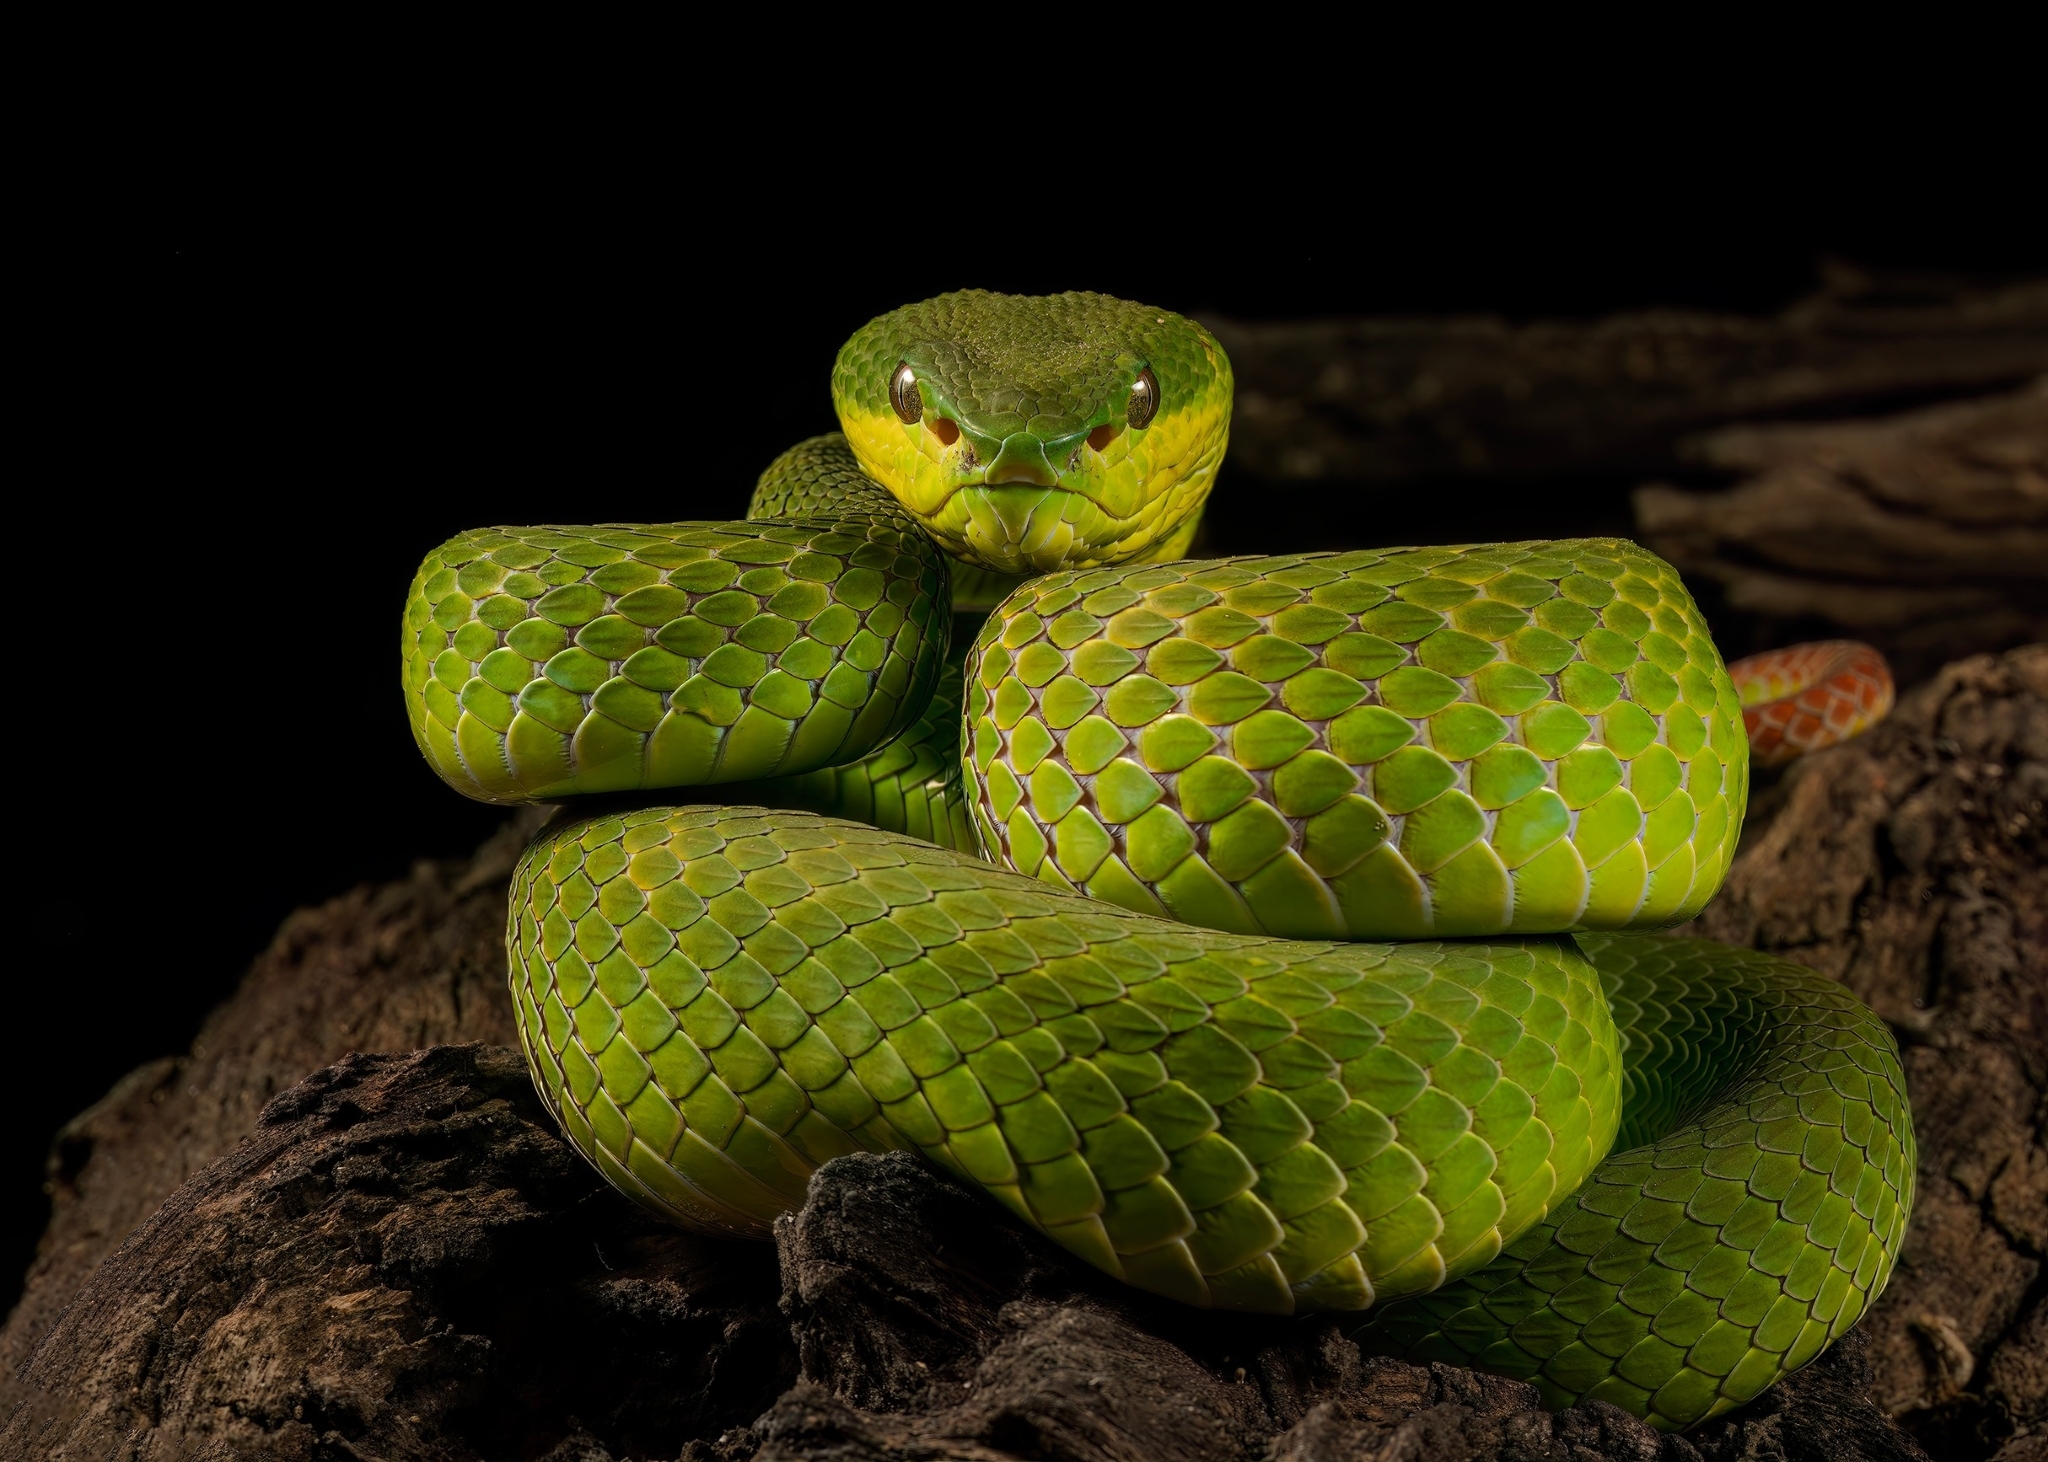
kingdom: Animalia
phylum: Chordata
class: Squamata
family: Viperidae
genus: Trimeresurus
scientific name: Trimeresurus insularis
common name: White-lipped island pitviper
